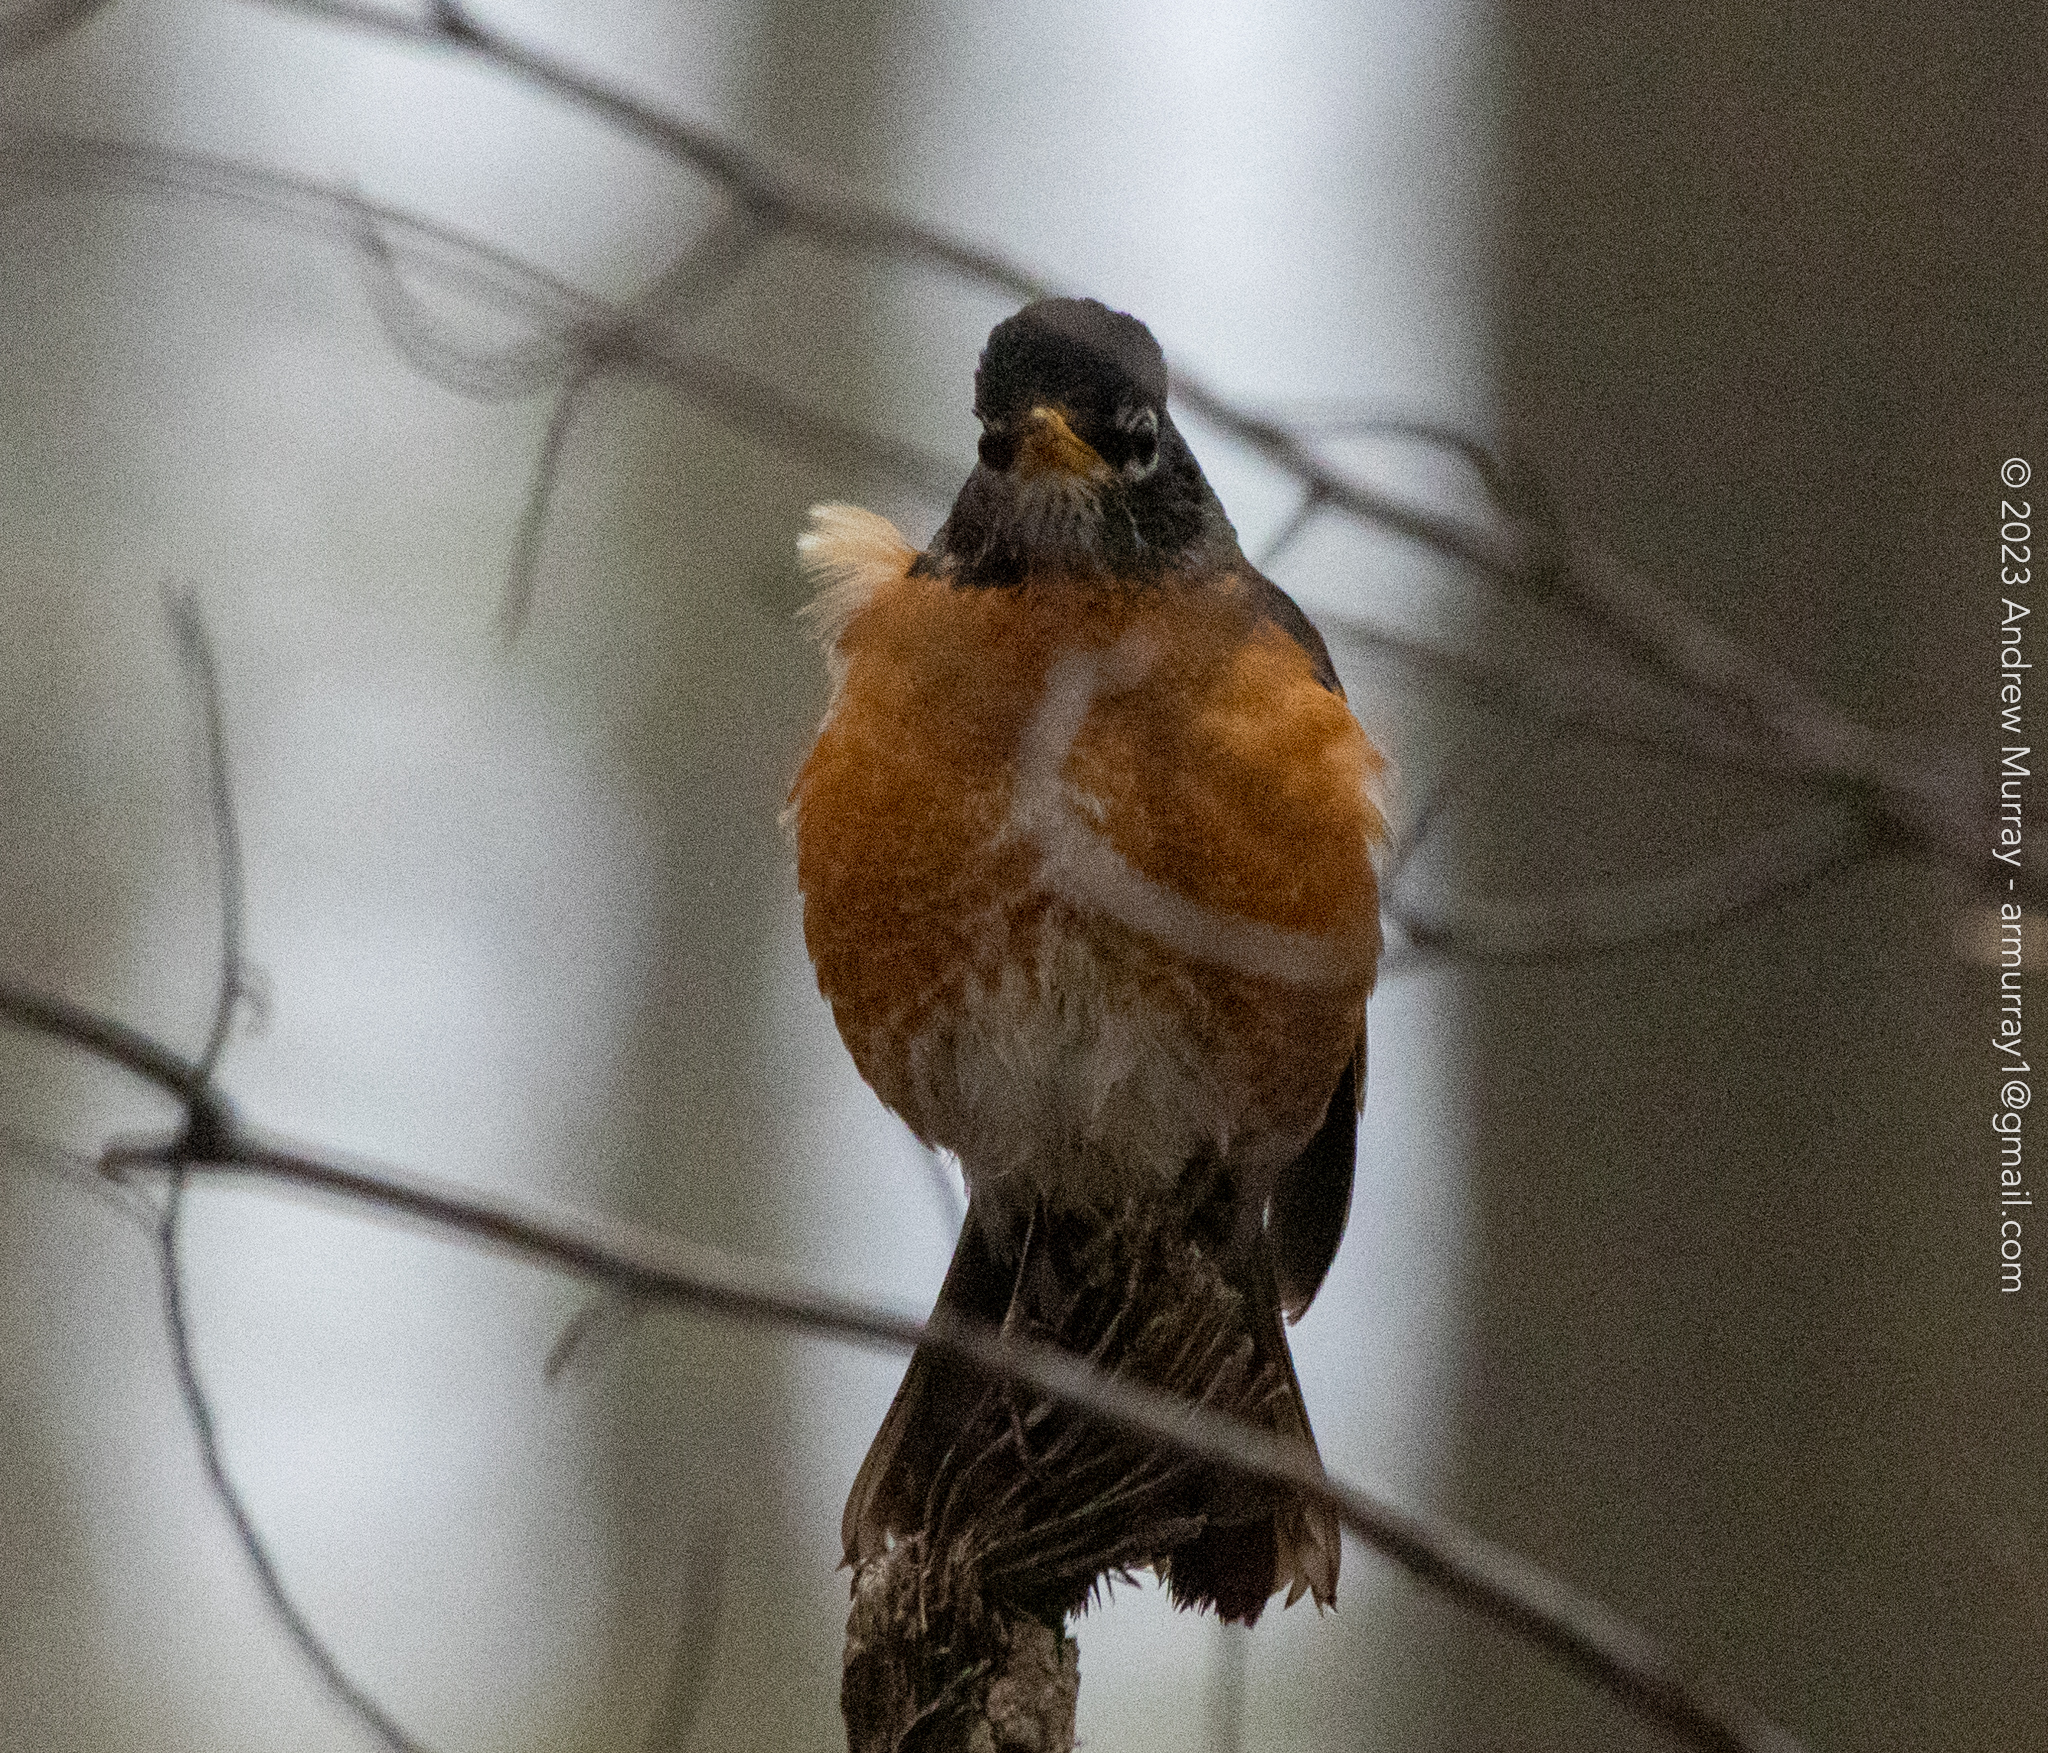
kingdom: Animalia
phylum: Chordata
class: Aves
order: Passeriformes
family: Turdidae
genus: Turdus
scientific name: Turdus migratorius
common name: American robin
